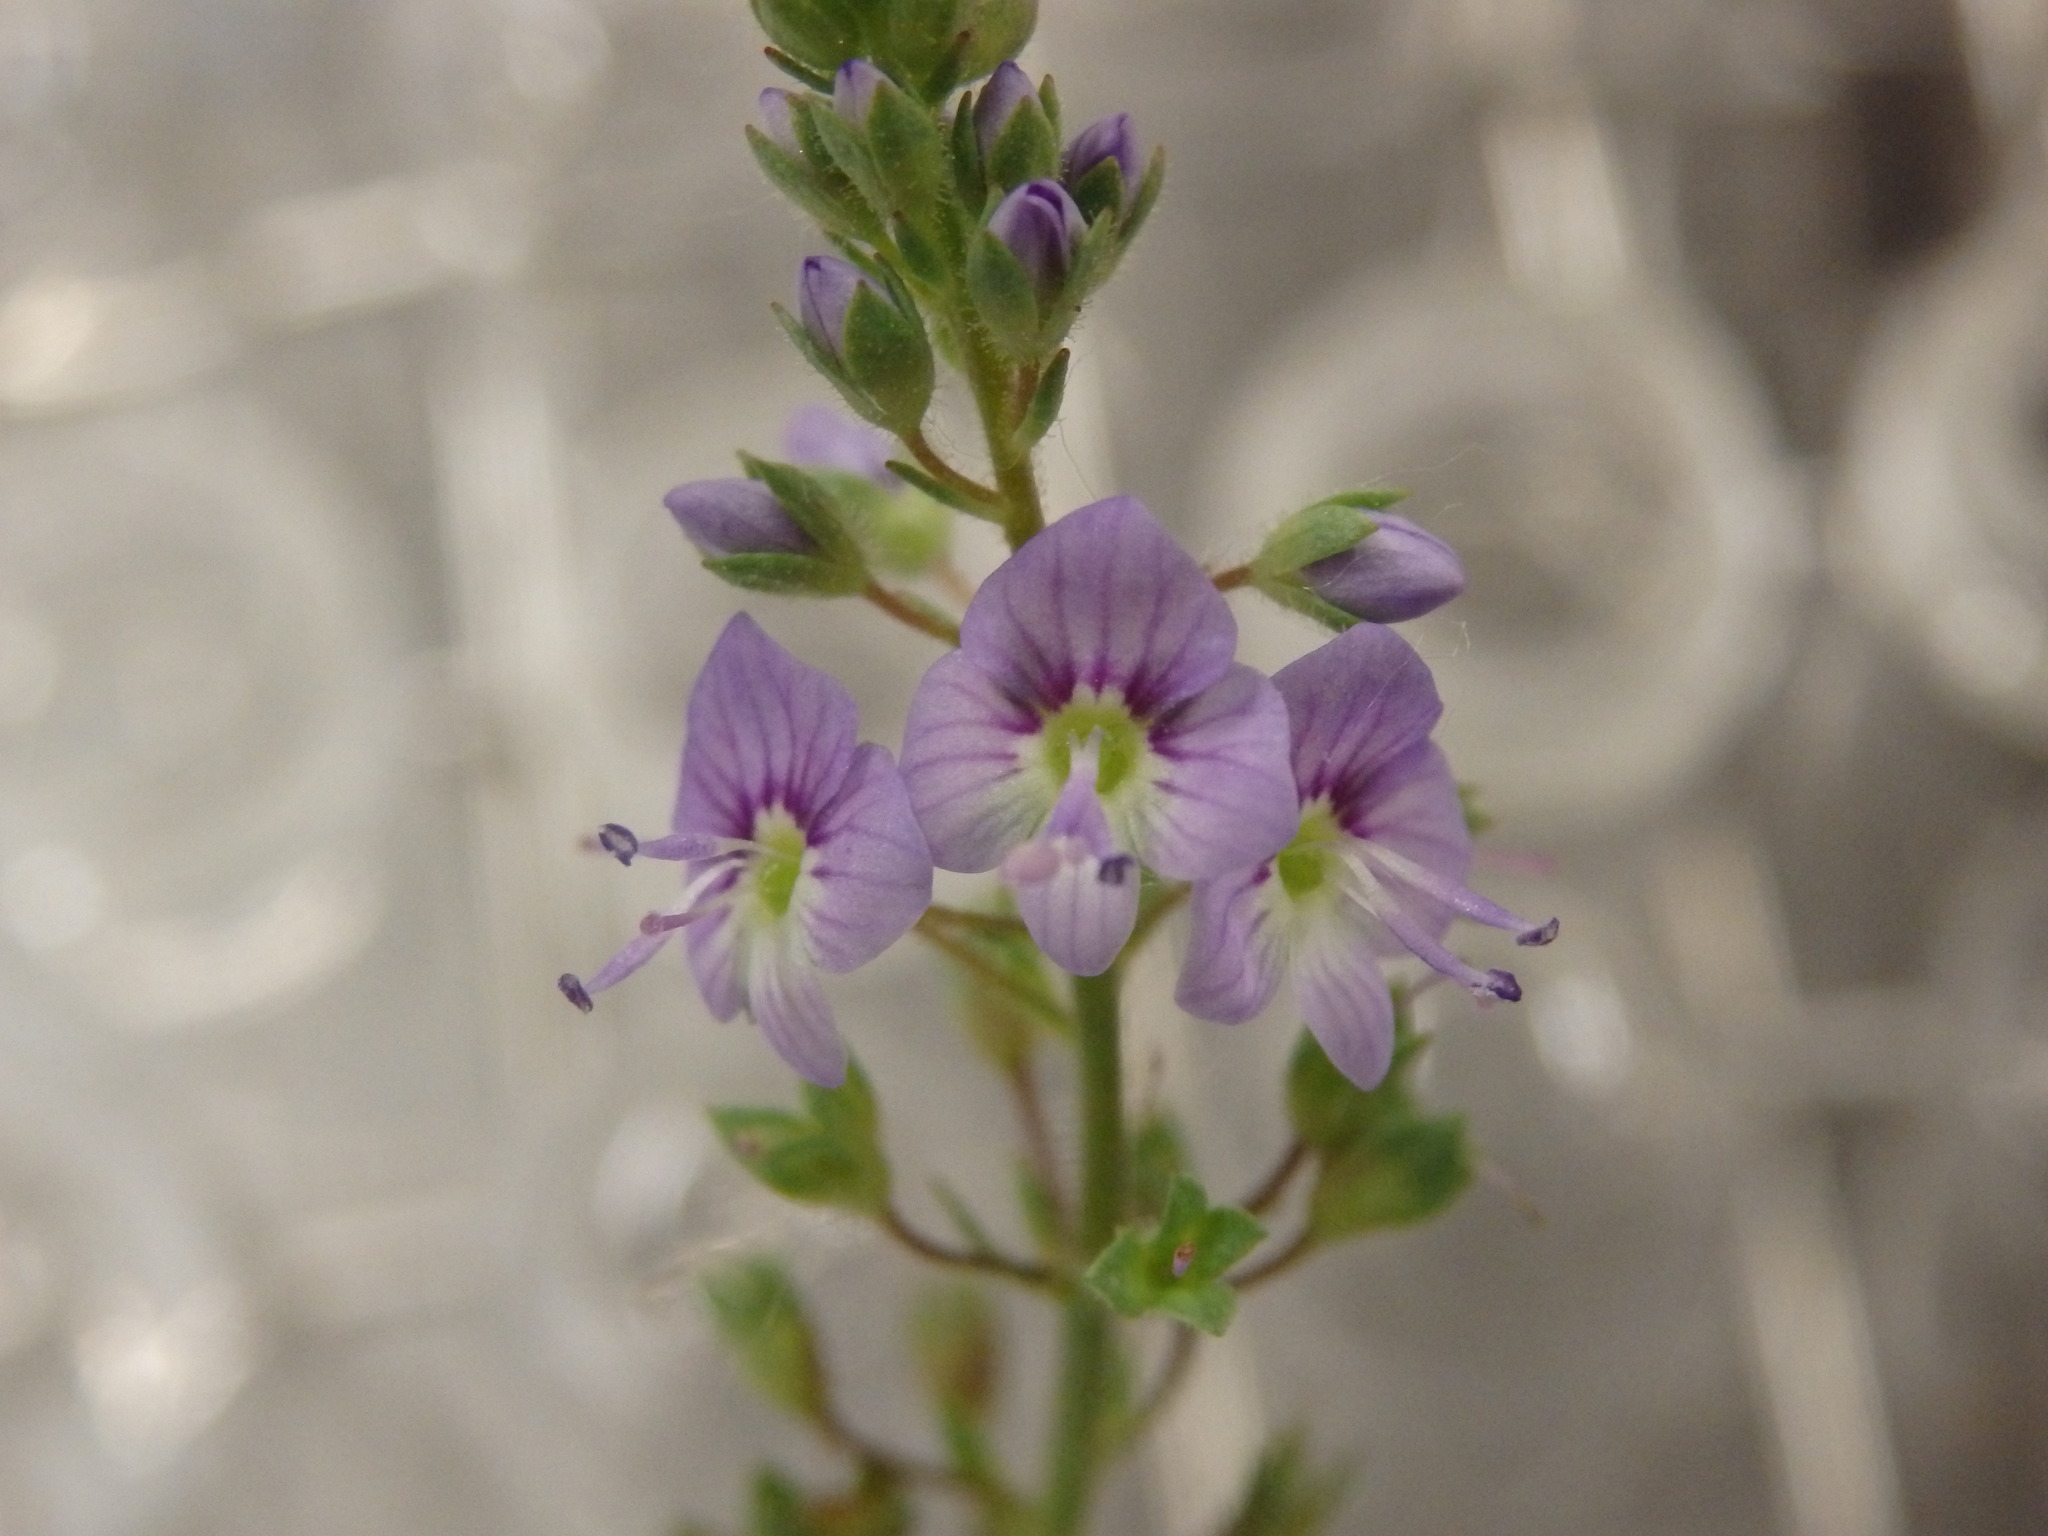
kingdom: Plantae
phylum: Tracheophyta
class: Magnoliopsida
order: Lamiales
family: Plantaginaceae
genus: Veronica
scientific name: Veronica anagallis-aquatica
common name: Water speedwell
